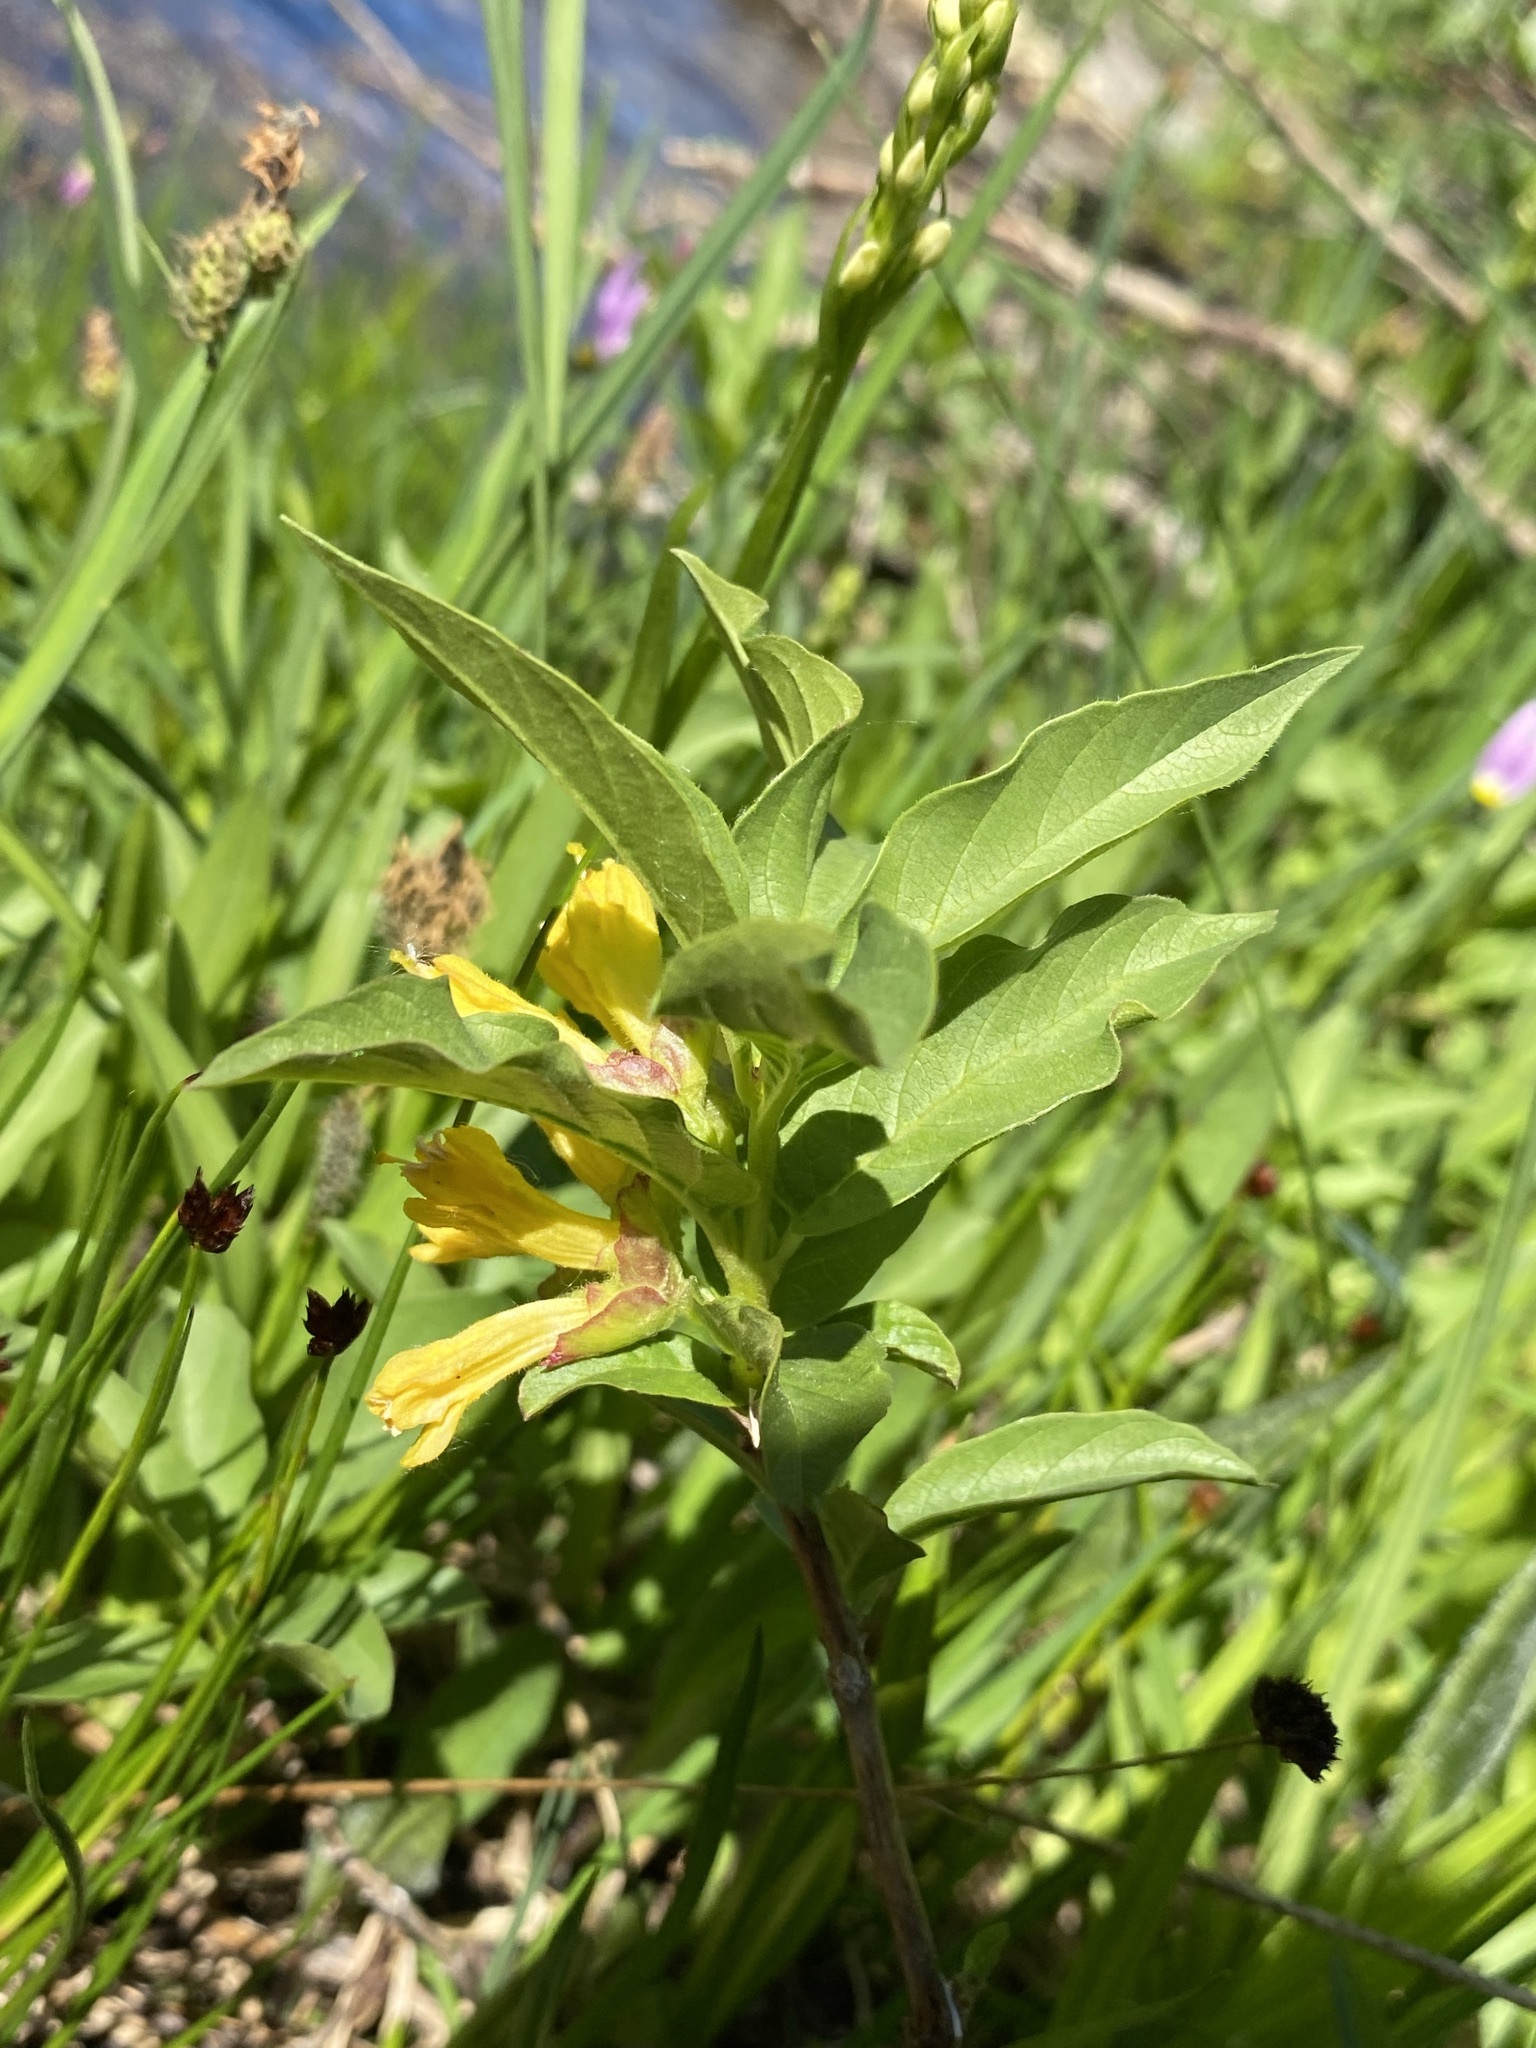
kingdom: Plantae
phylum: Tracheophyta
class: Magnoliopsida
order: Dipsacales
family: Caprifoliaceae
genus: Lonicera
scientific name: Lonicera involucrata
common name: Californian honeysuckle
